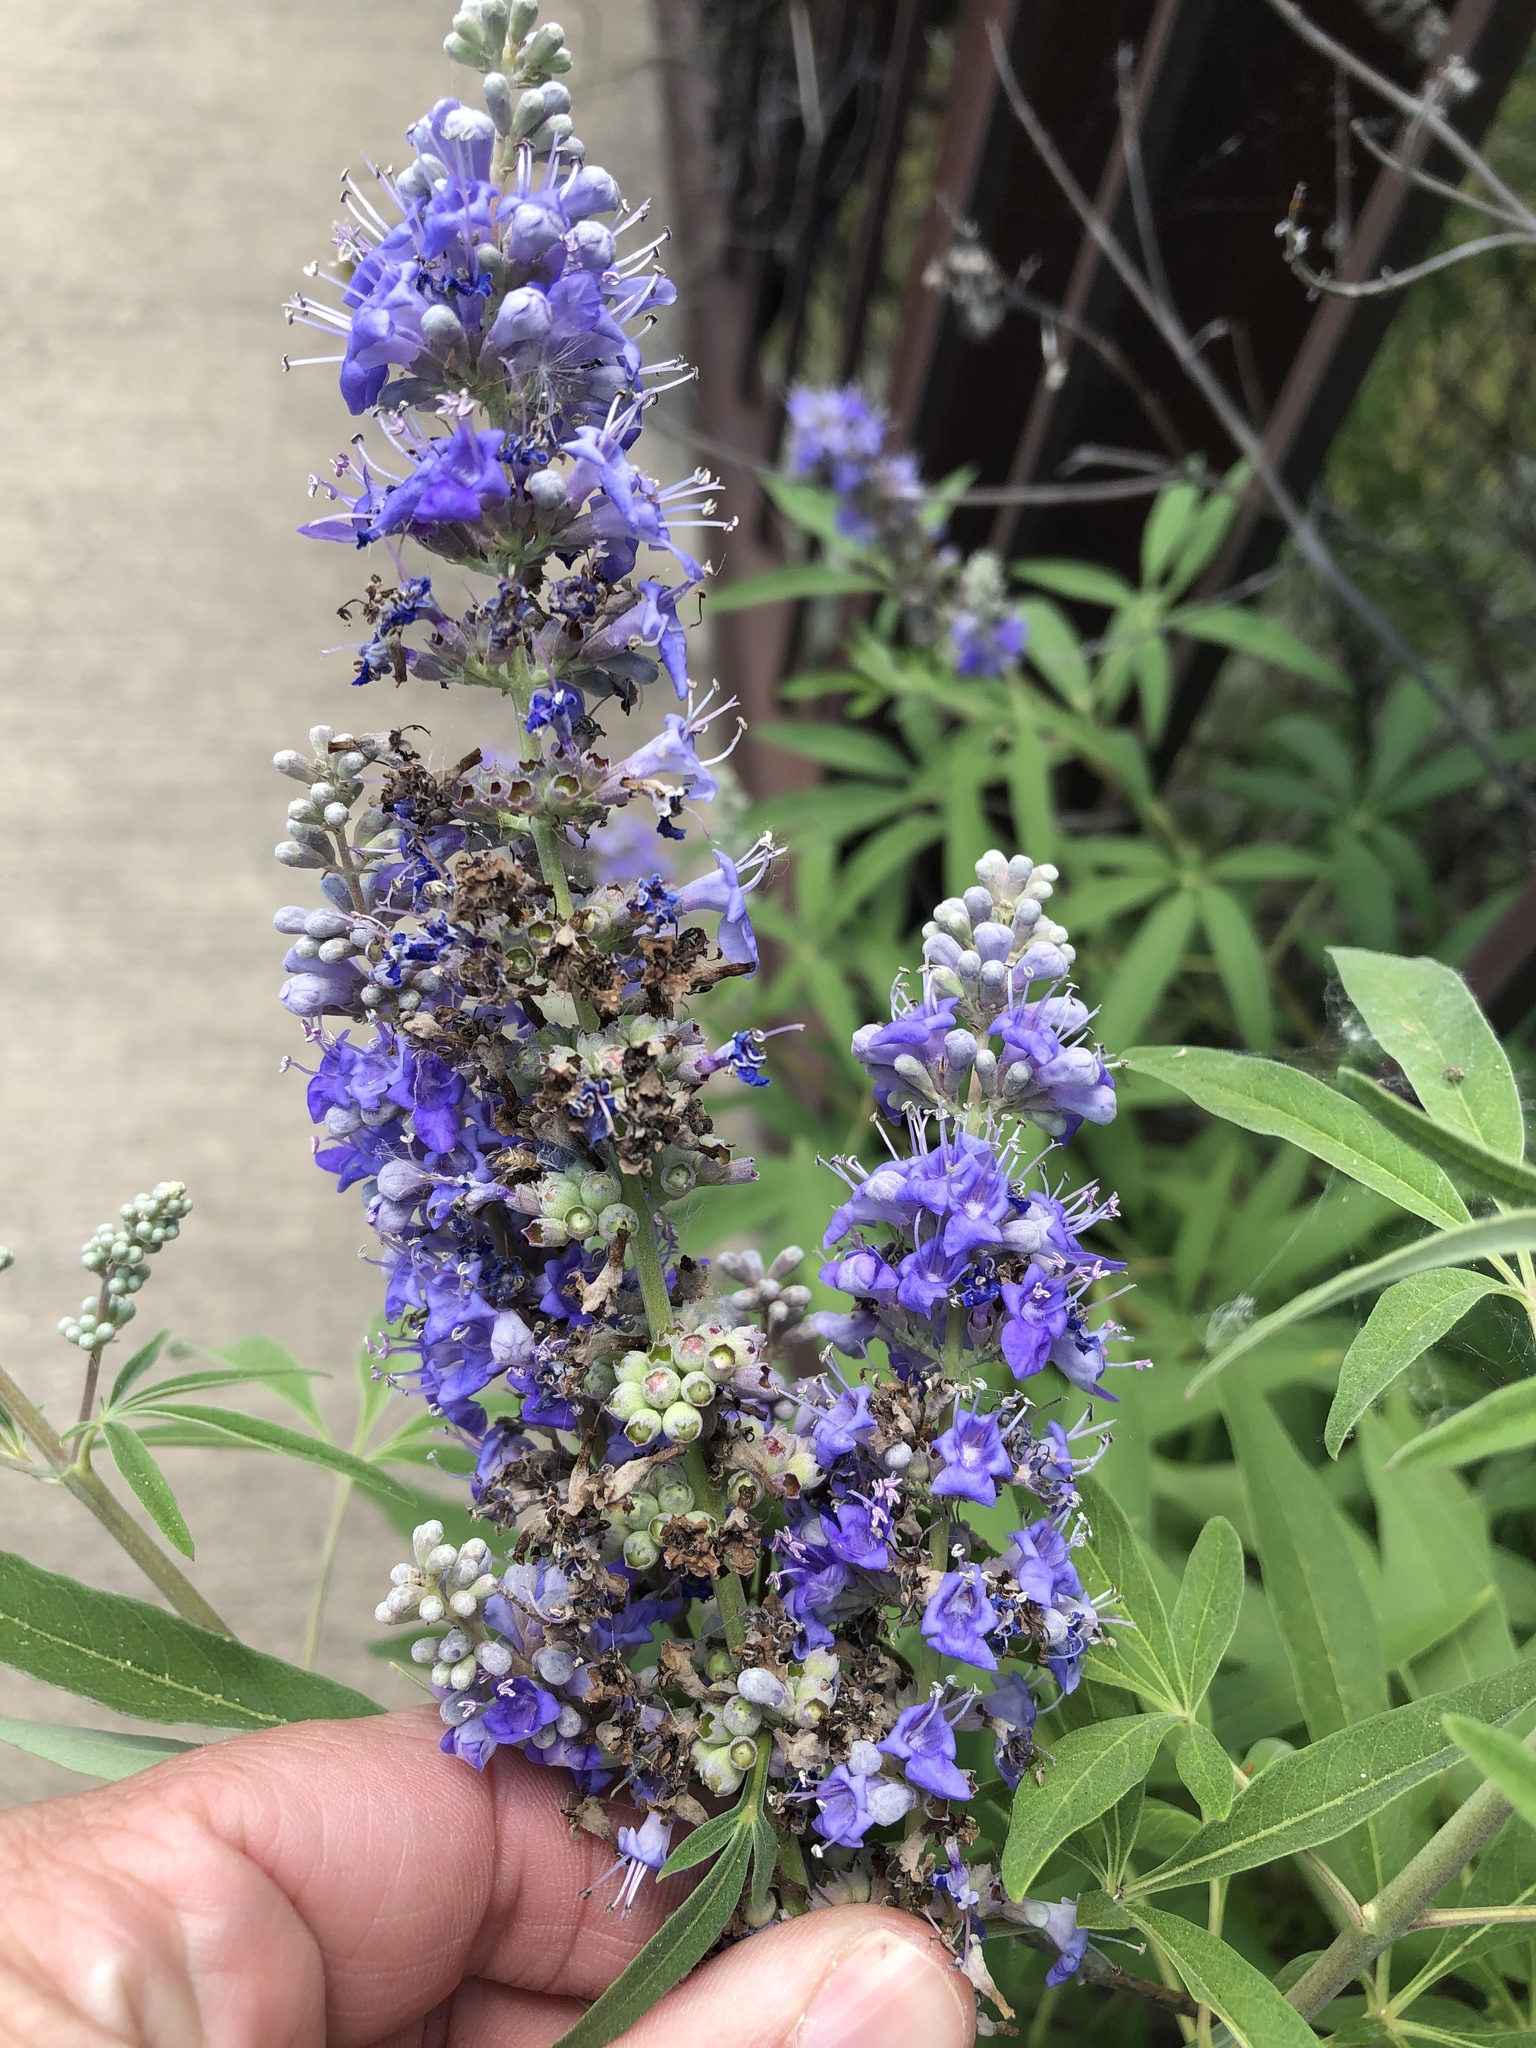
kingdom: Plantae
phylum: Tracheophyta
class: Magnoliopsida
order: Lamiales
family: Lamiaceae
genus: Vitex
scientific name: Vitex agnus-castus
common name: Chasteberry
